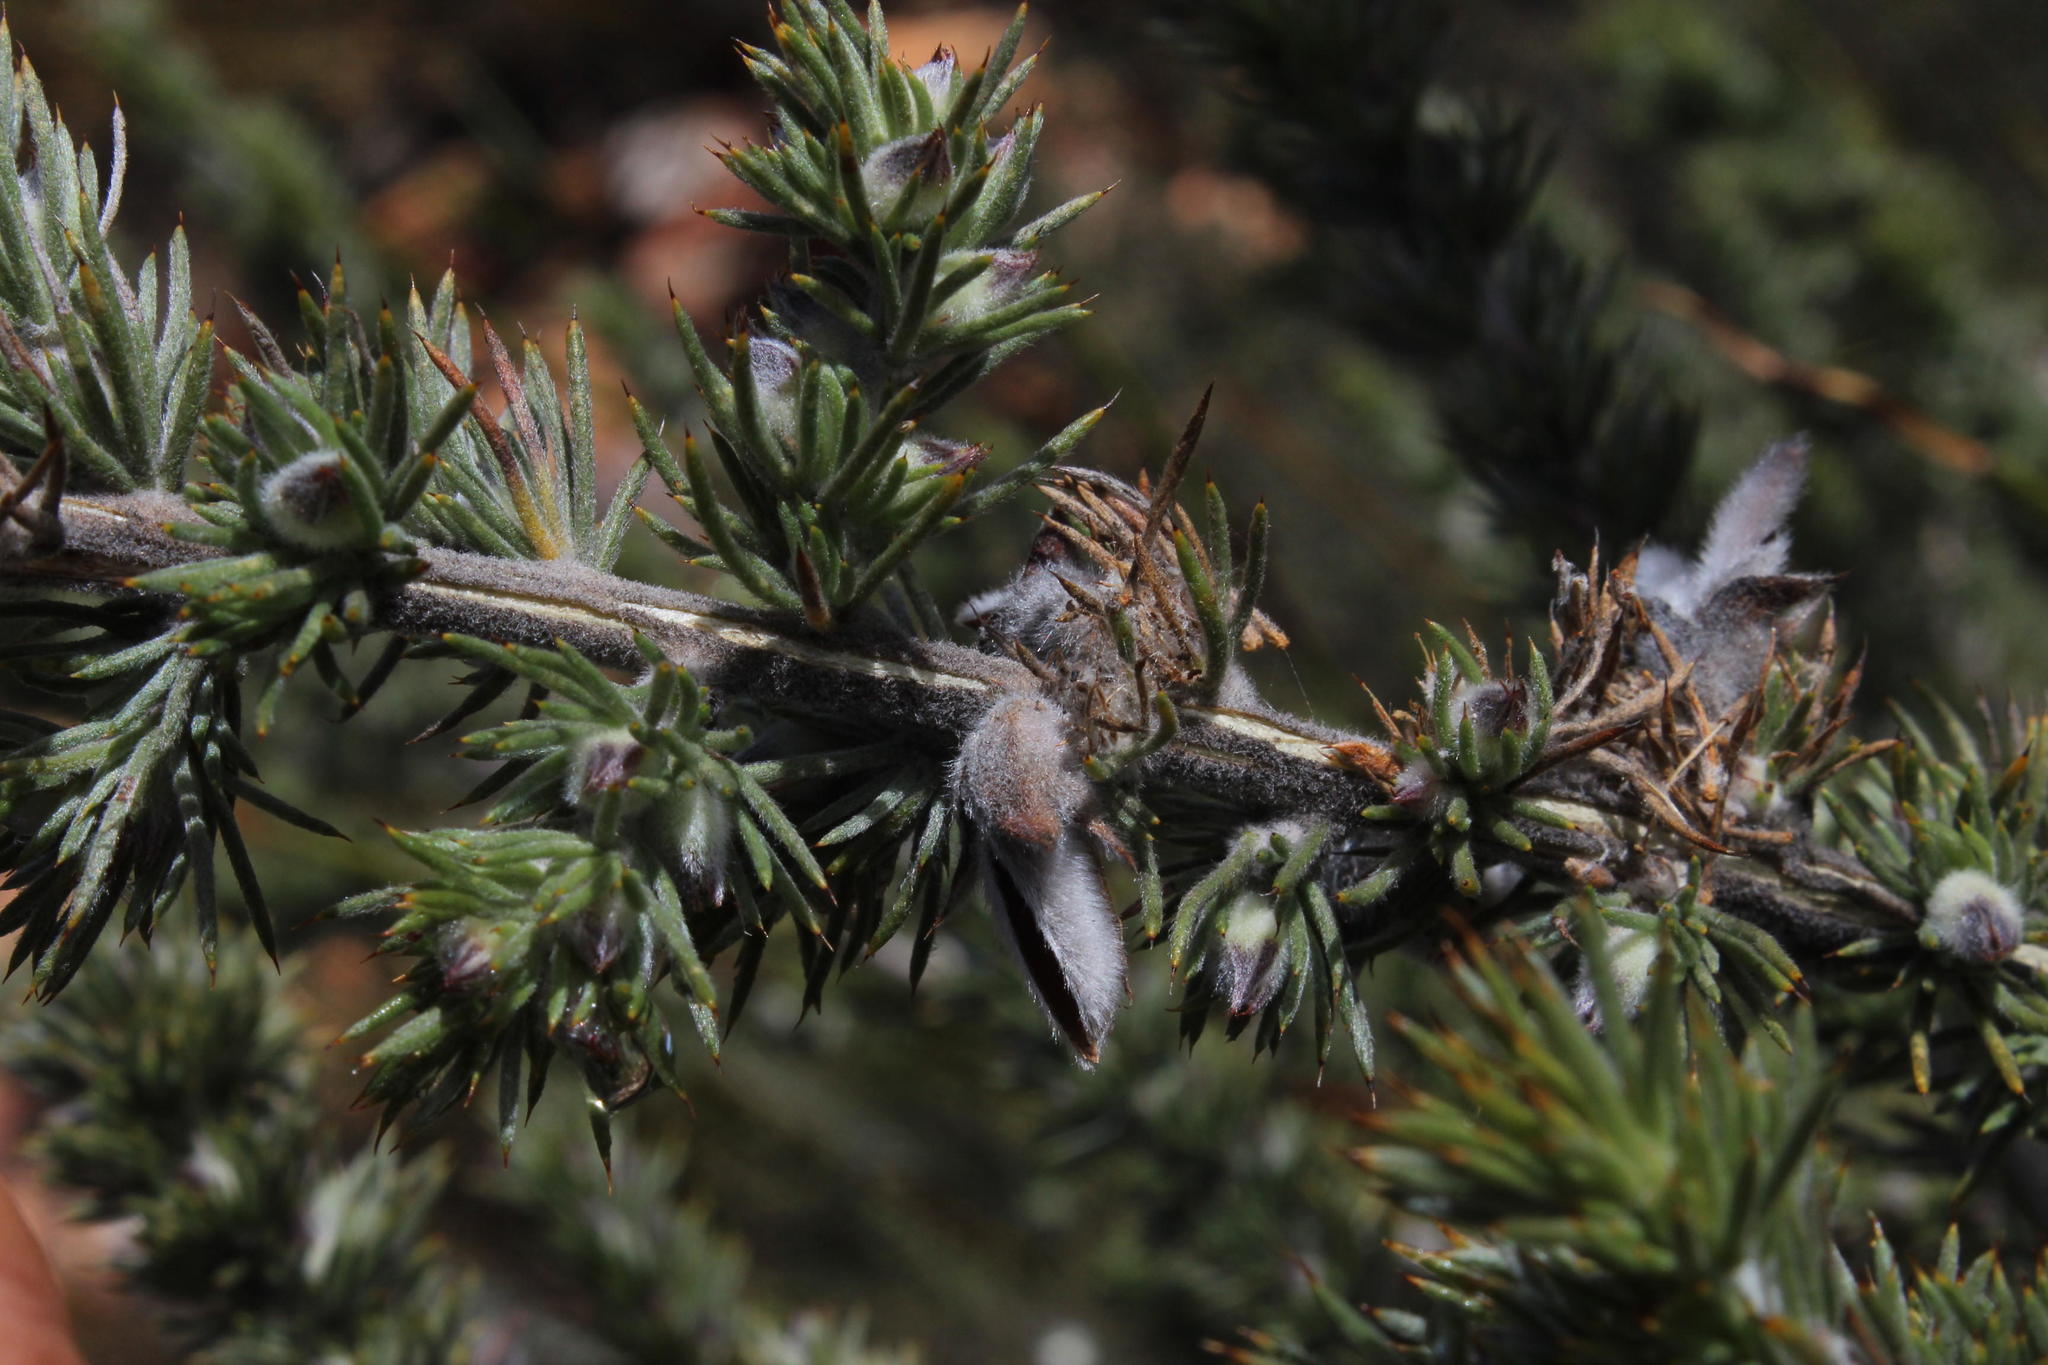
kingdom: Plantae
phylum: Tracheophyta
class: Magnoliopsida
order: Fabales
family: Fabaceae
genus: Aspalathus
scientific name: Aspalathus hystrix
